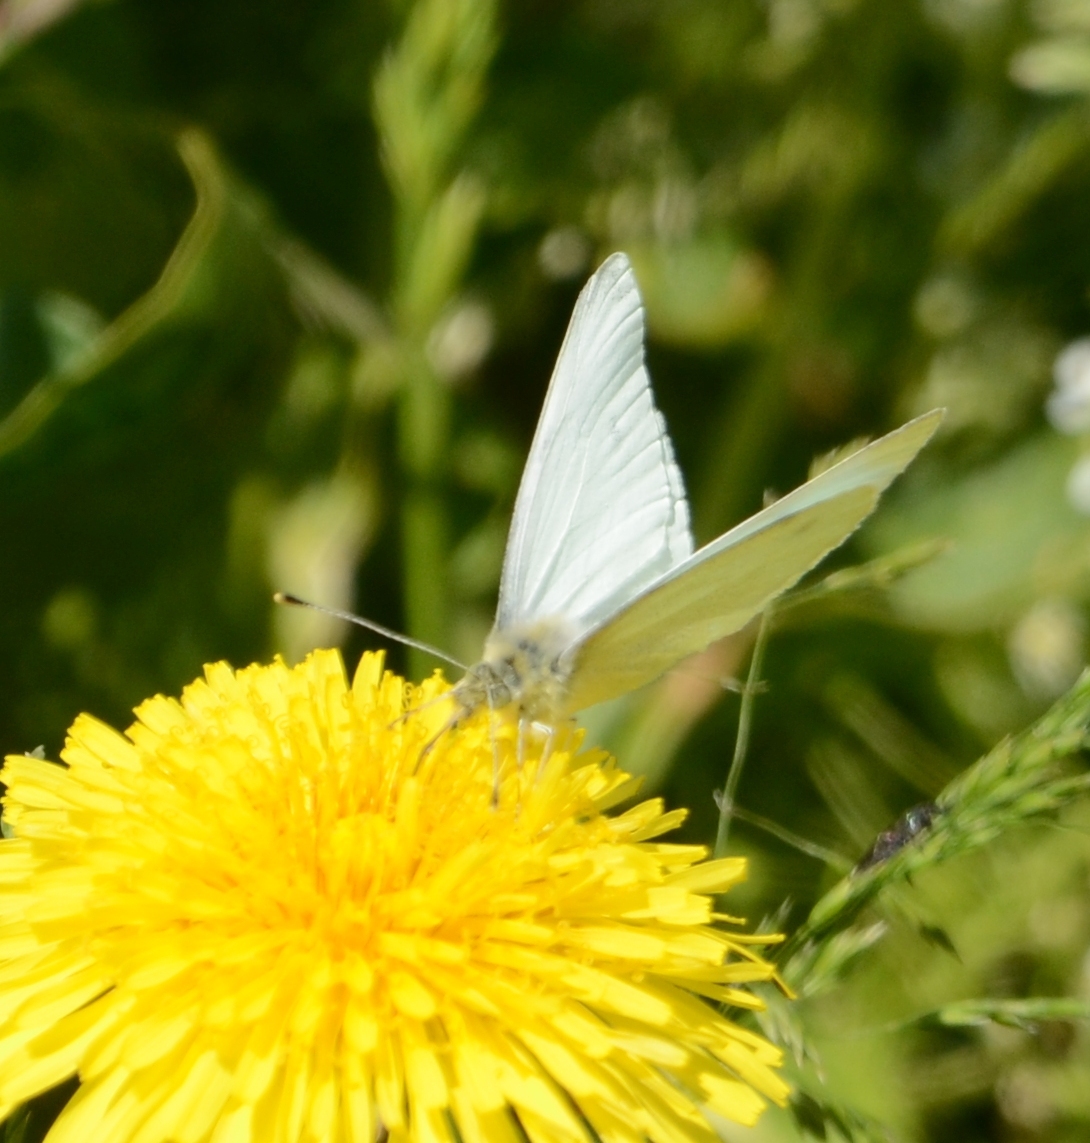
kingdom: Animalia
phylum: Arthropoda
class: Insecta
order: Lepidoptera
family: Pieridae
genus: Pieris
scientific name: Pieris rapae
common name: Small white
